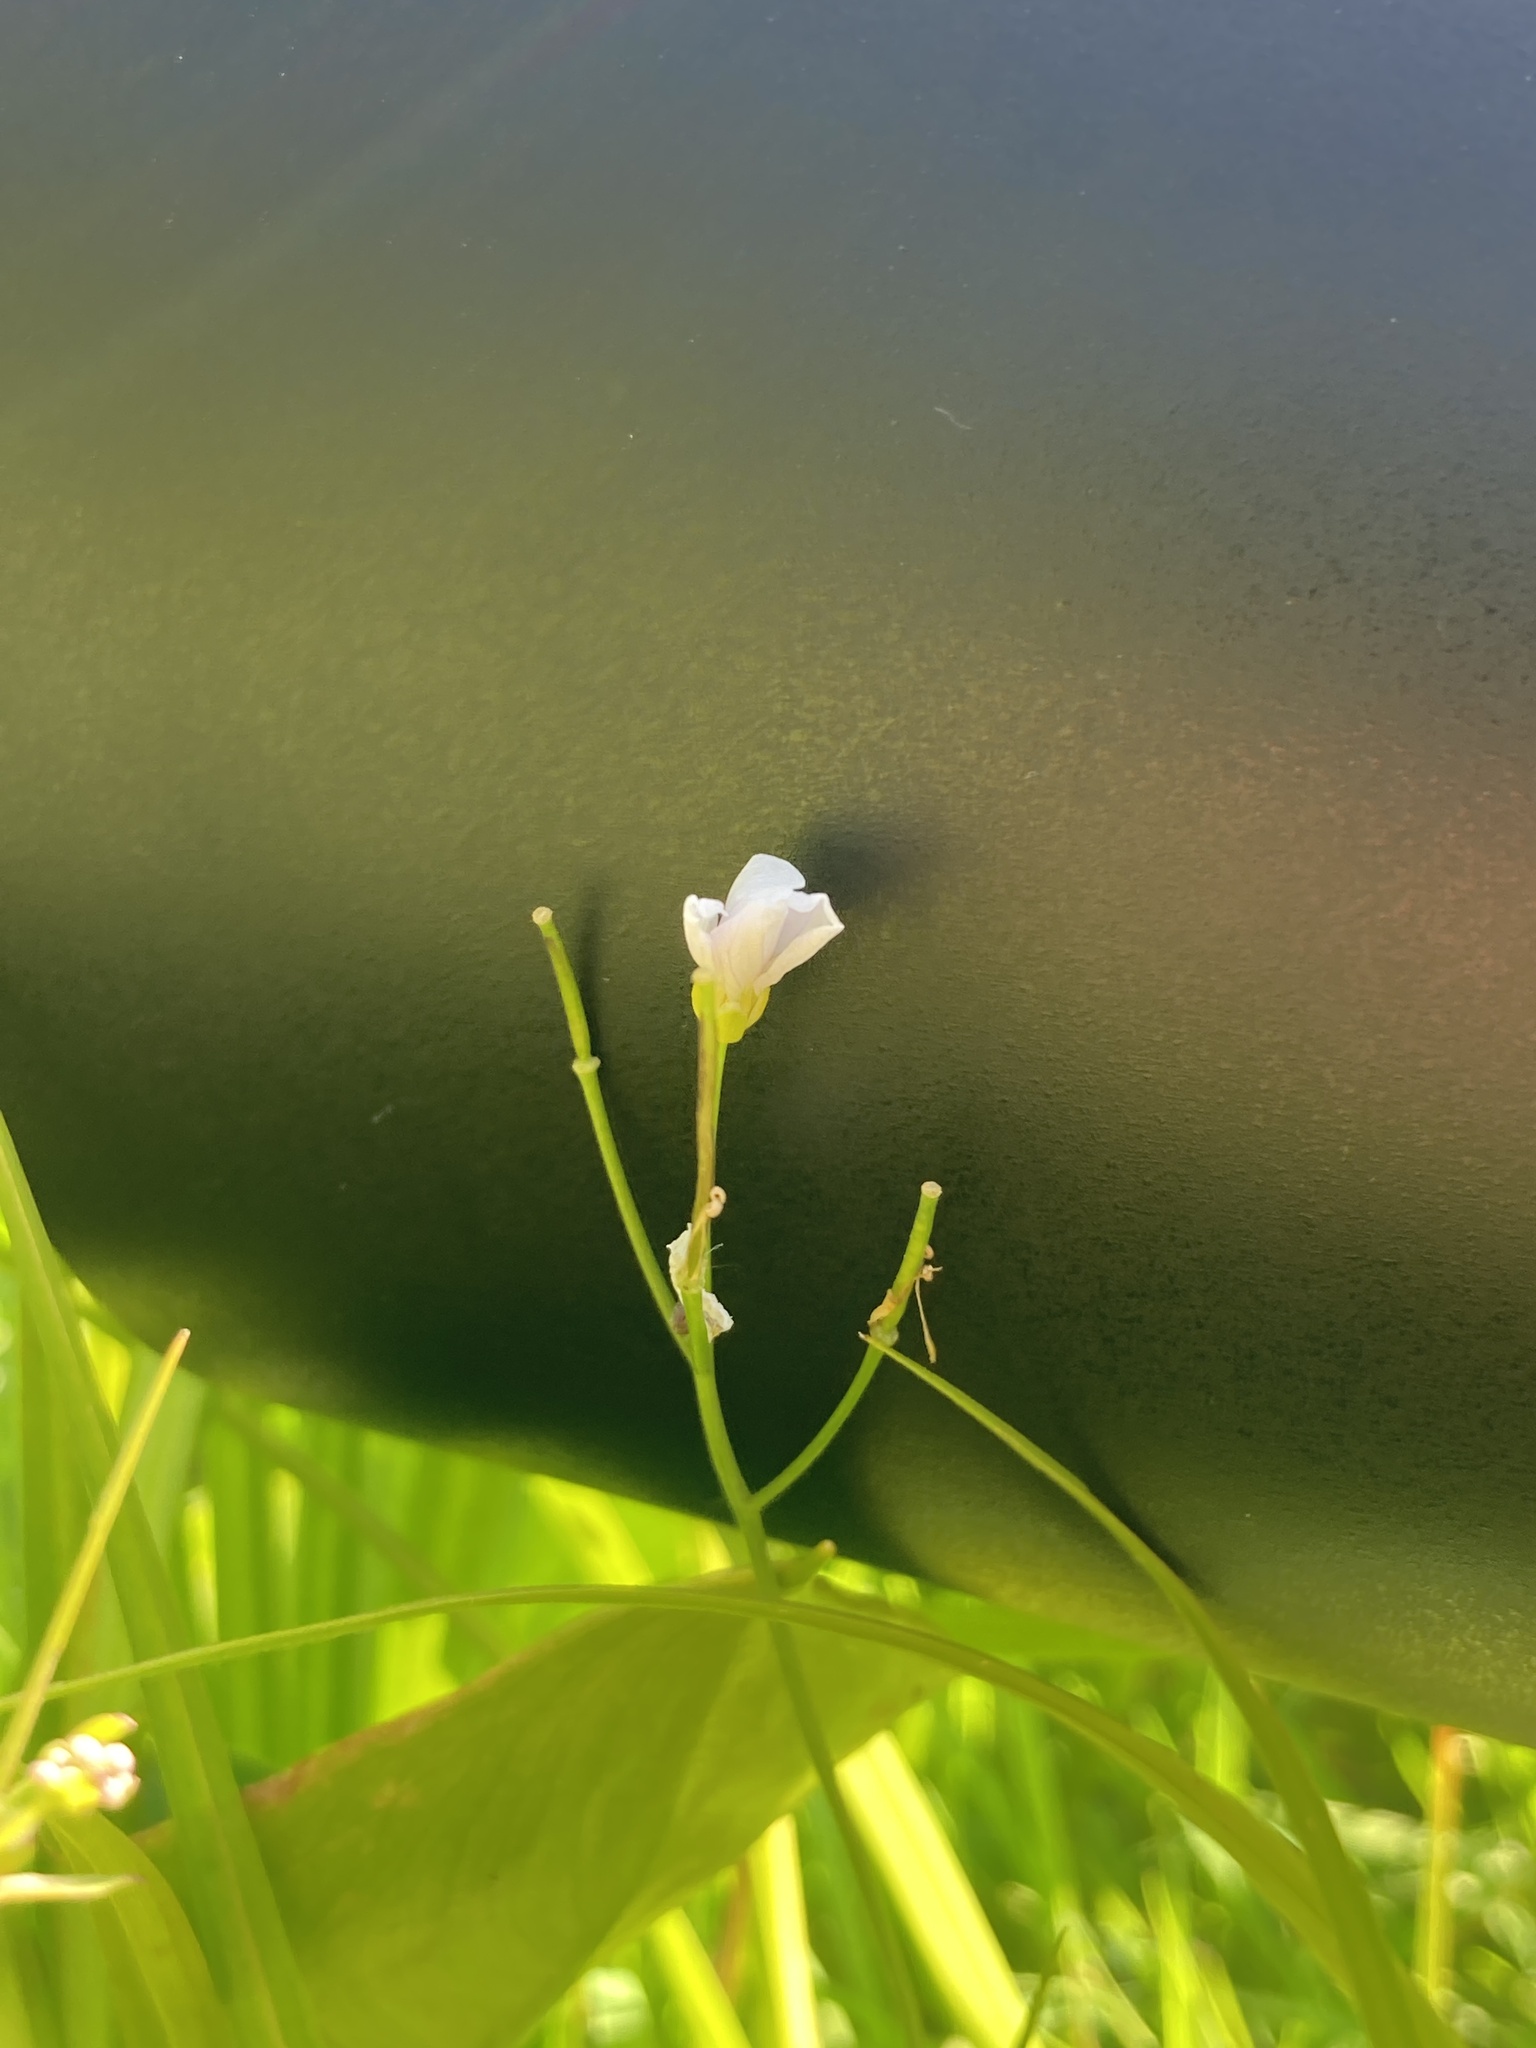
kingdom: Plantae
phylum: Tracheophyta
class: Magnoliopsida
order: Brassicales
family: Brassicaceae
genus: Cardamine
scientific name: Cardamine dentata
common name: Toothed bittercress
